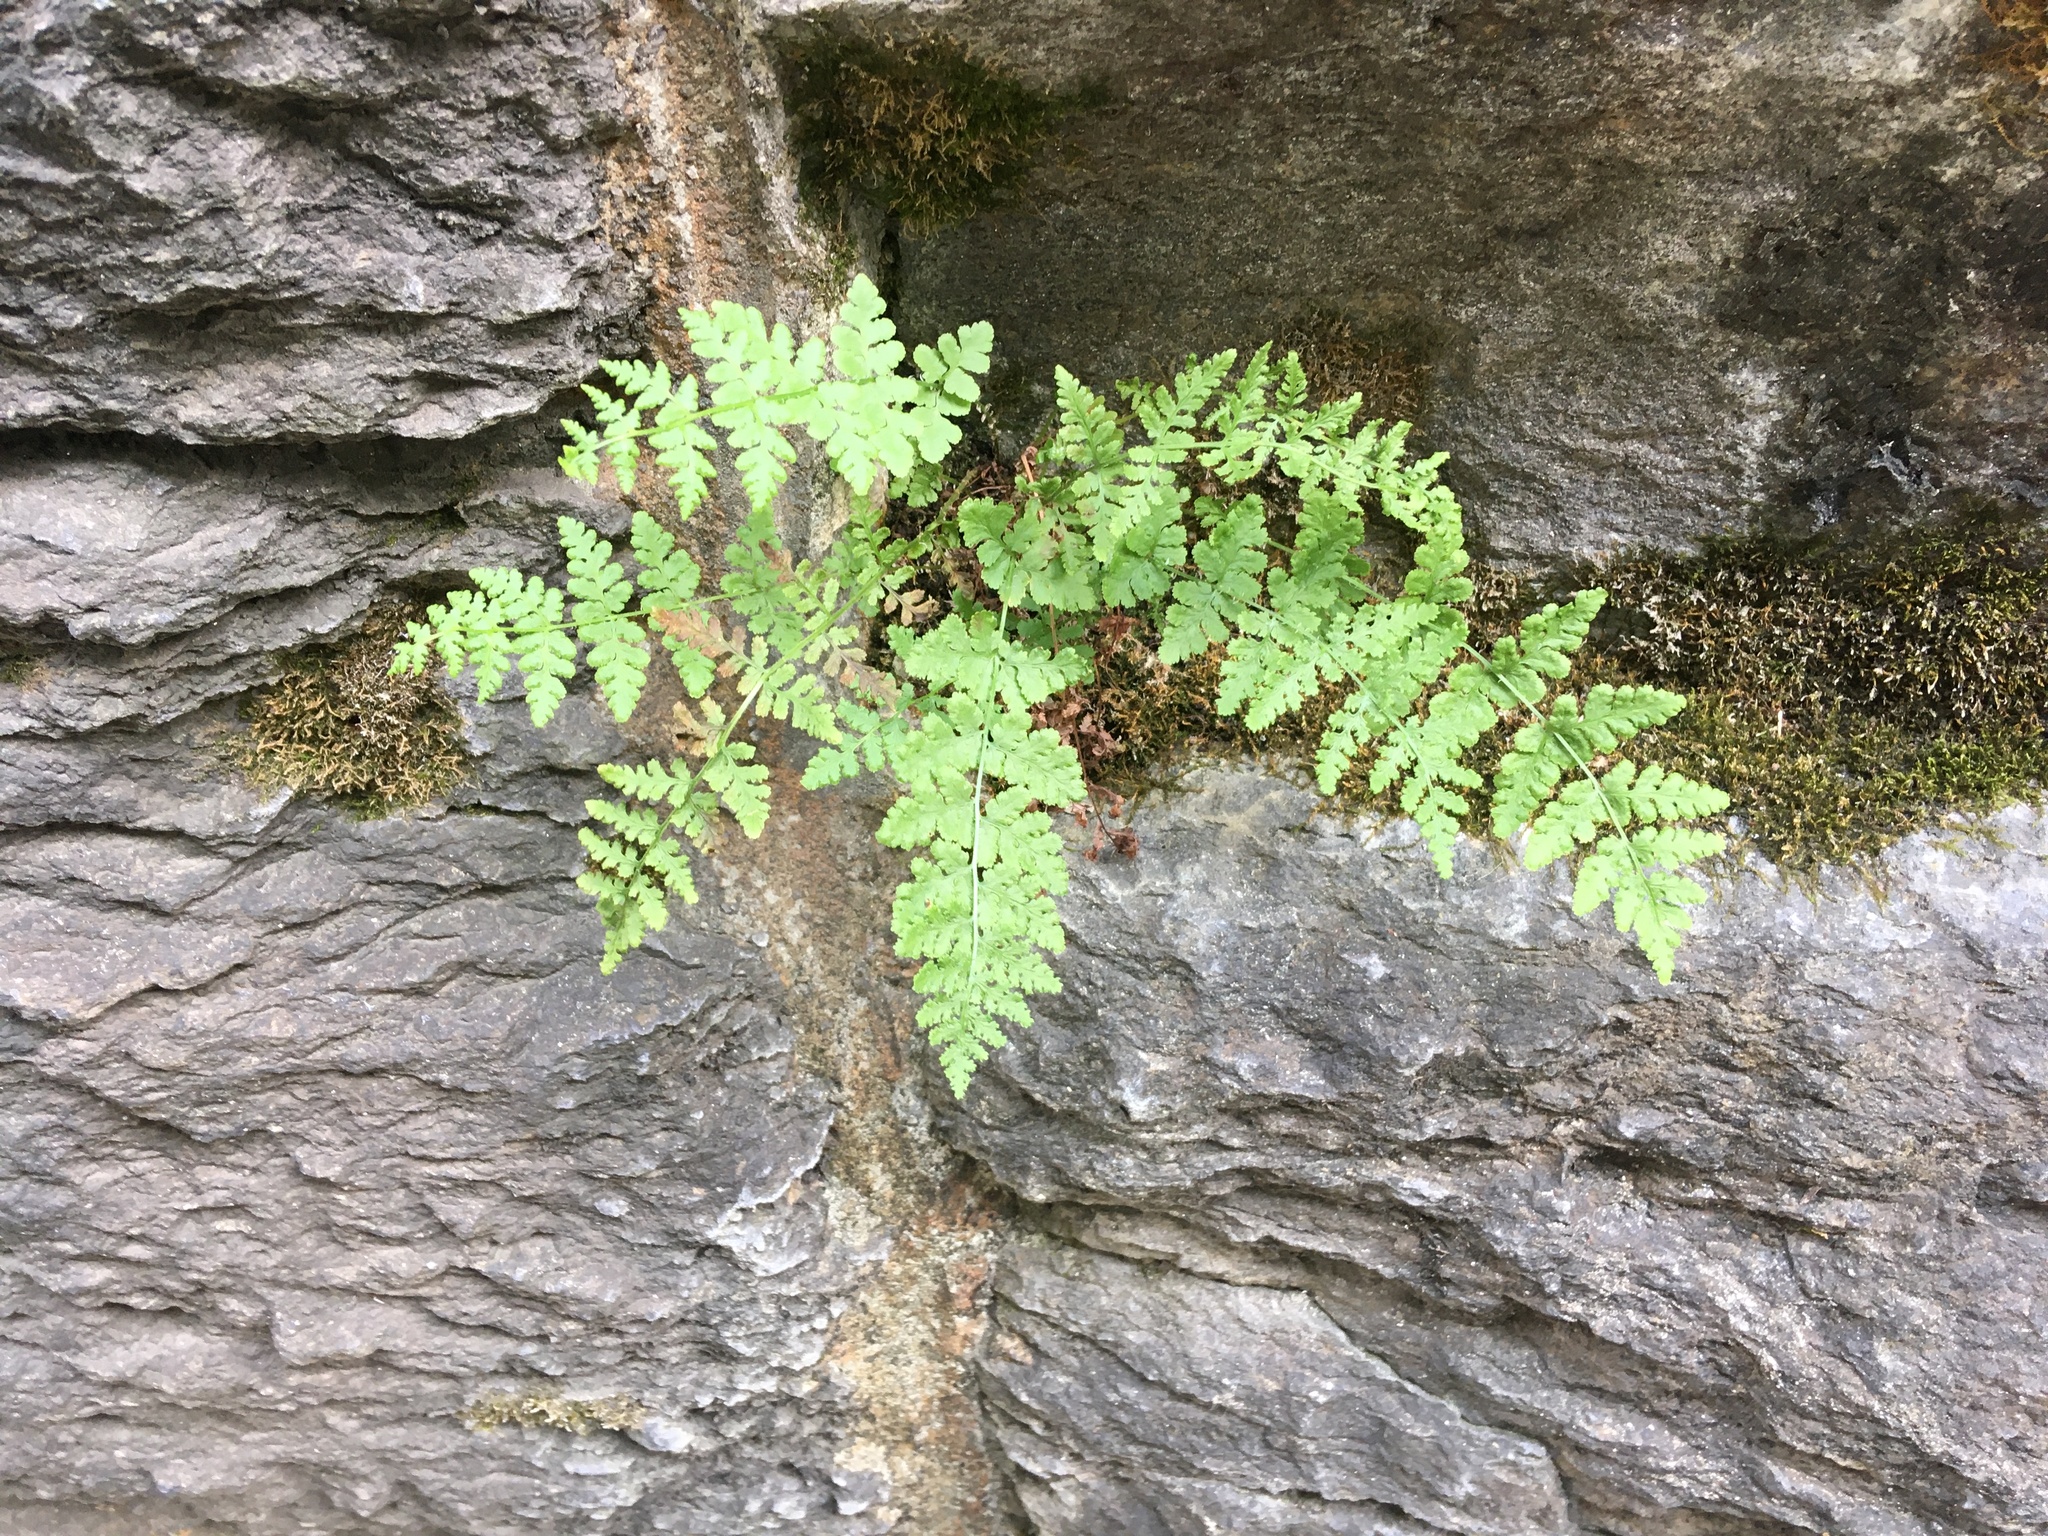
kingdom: Plantae
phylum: Tracheophyta
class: Polypodiopsida
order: Polypodiales
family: Woodsiaceae
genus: Physematium
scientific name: Physematium obtusum
